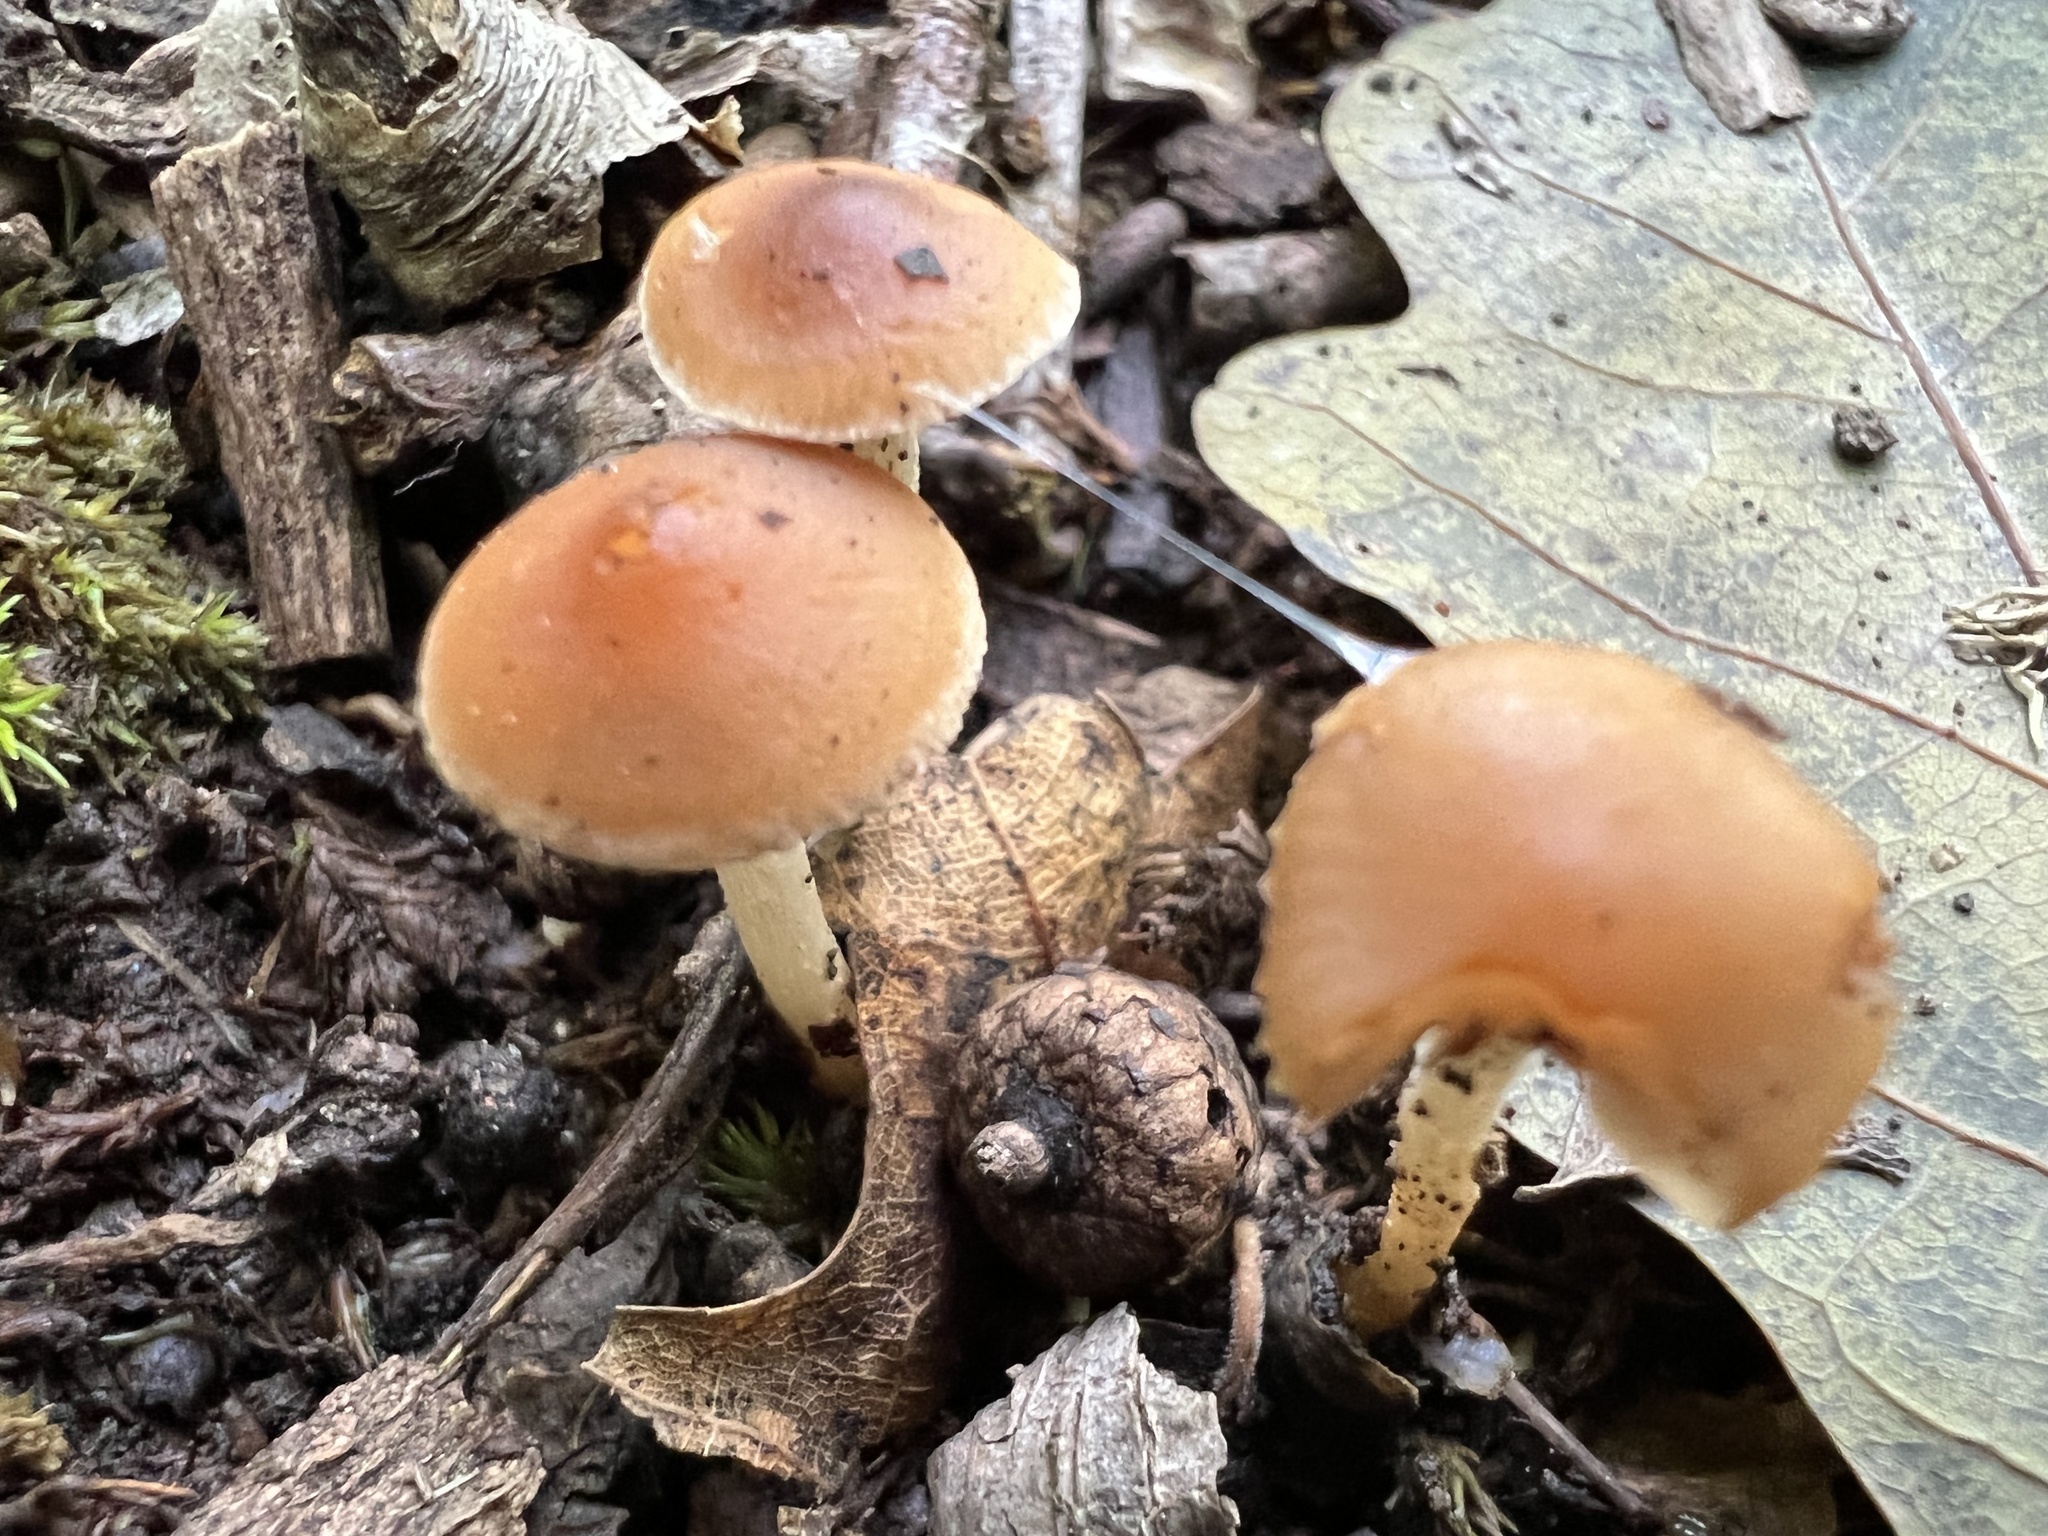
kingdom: Fungi
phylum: Basidiomycota
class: Agaricomycetes
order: Agaricales
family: Tubariaceae
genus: Tubaria
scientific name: Tubaria furfuracea
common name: Scurfy twiglet
